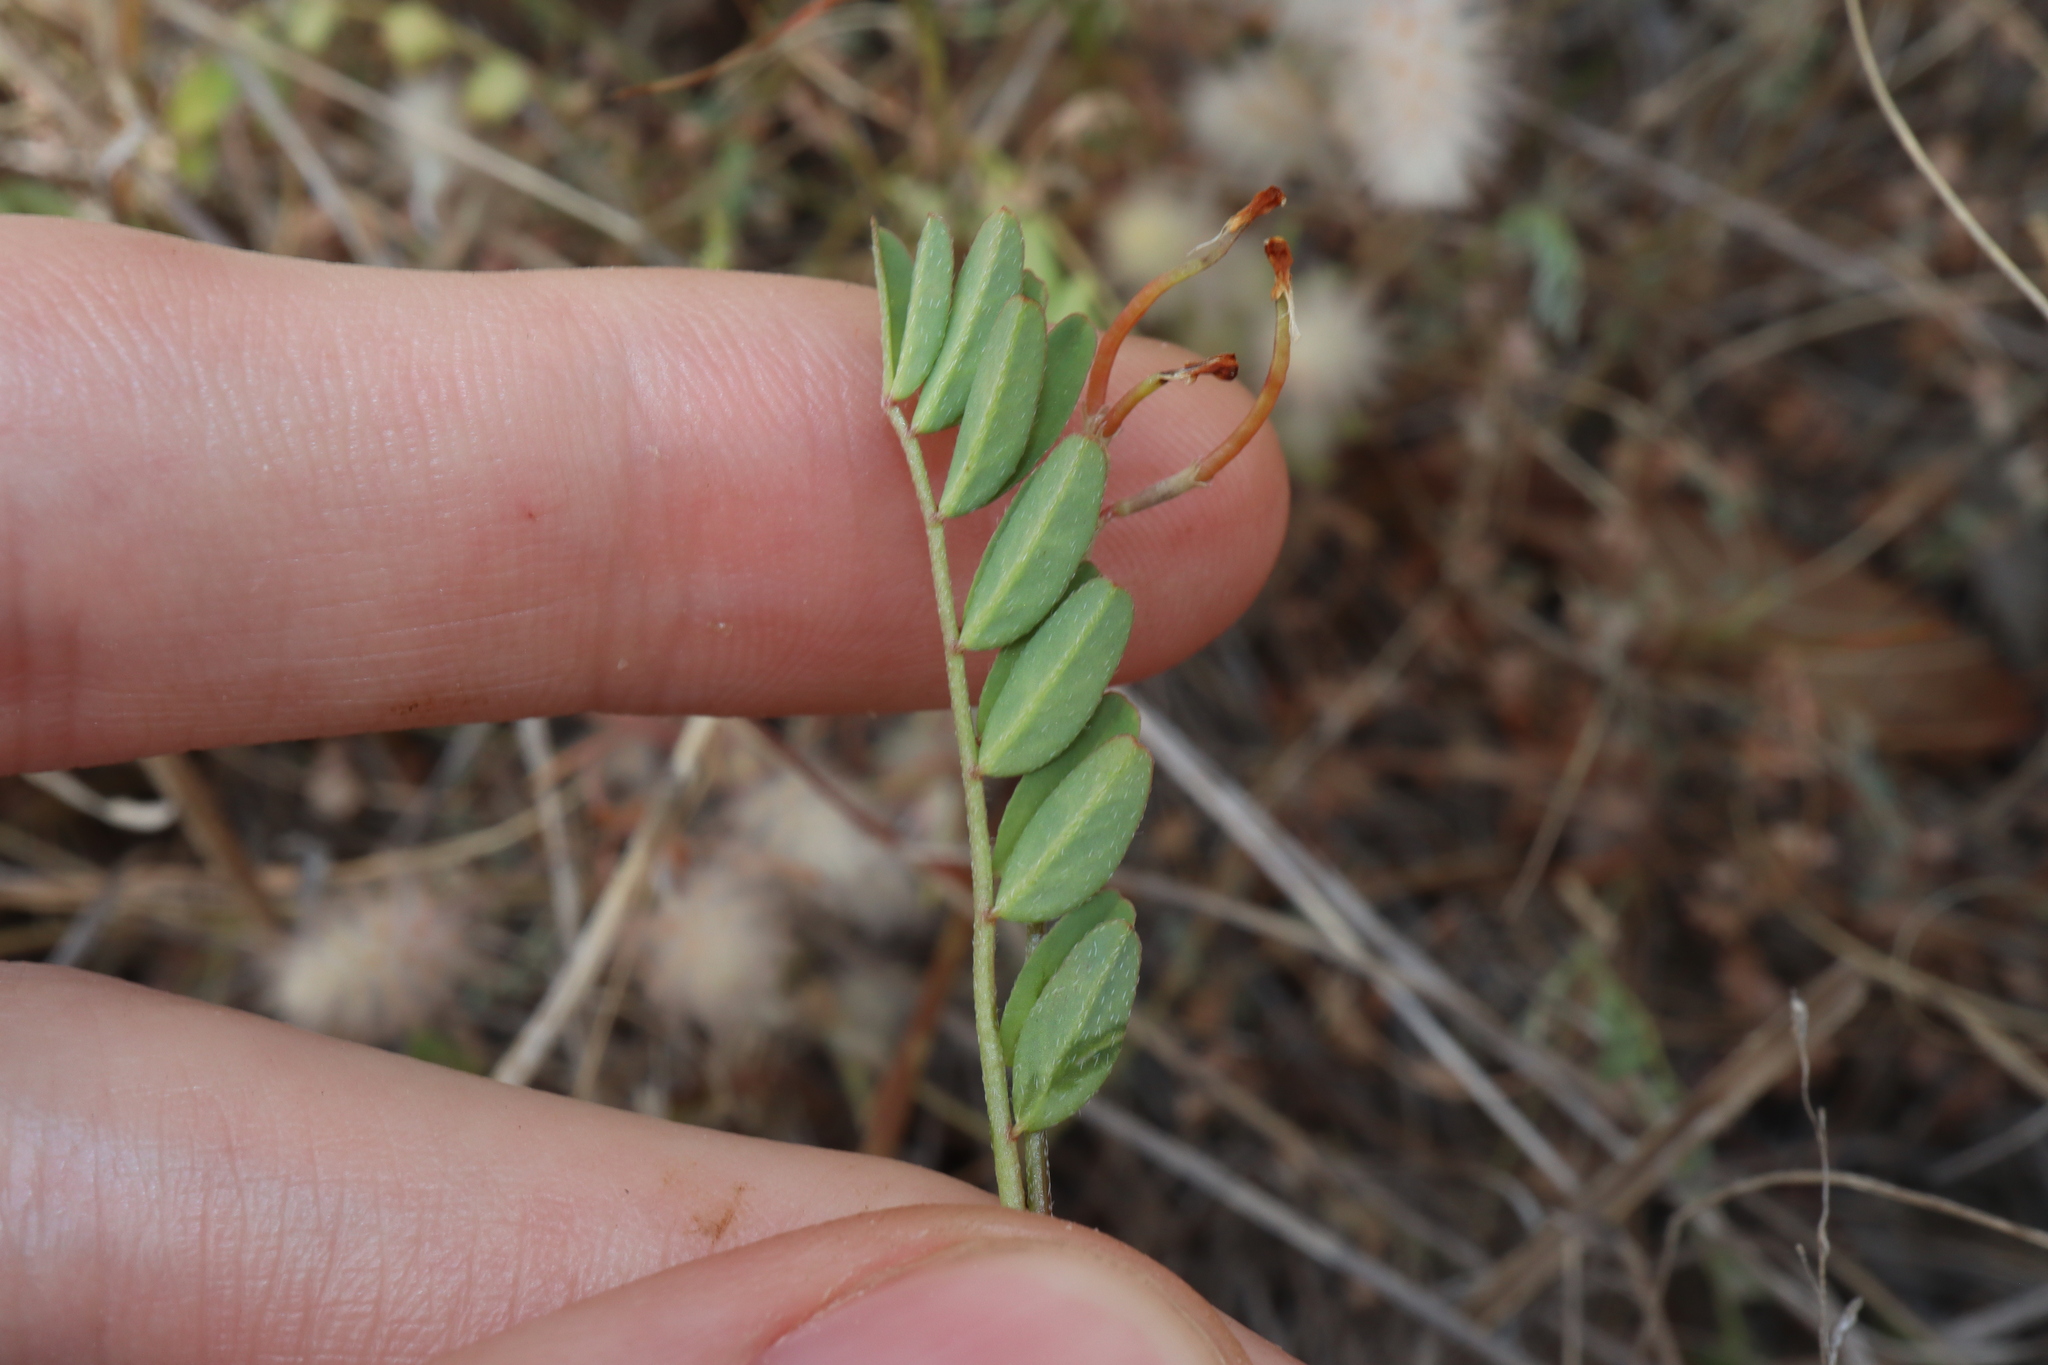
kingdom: Plantae
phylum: Tracheophyta
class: Magnoliopsida
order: Fabales
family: Fabaceae
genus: Ornithopus
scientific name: Ornithopus pinnatus
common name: Orange bird's-foot
